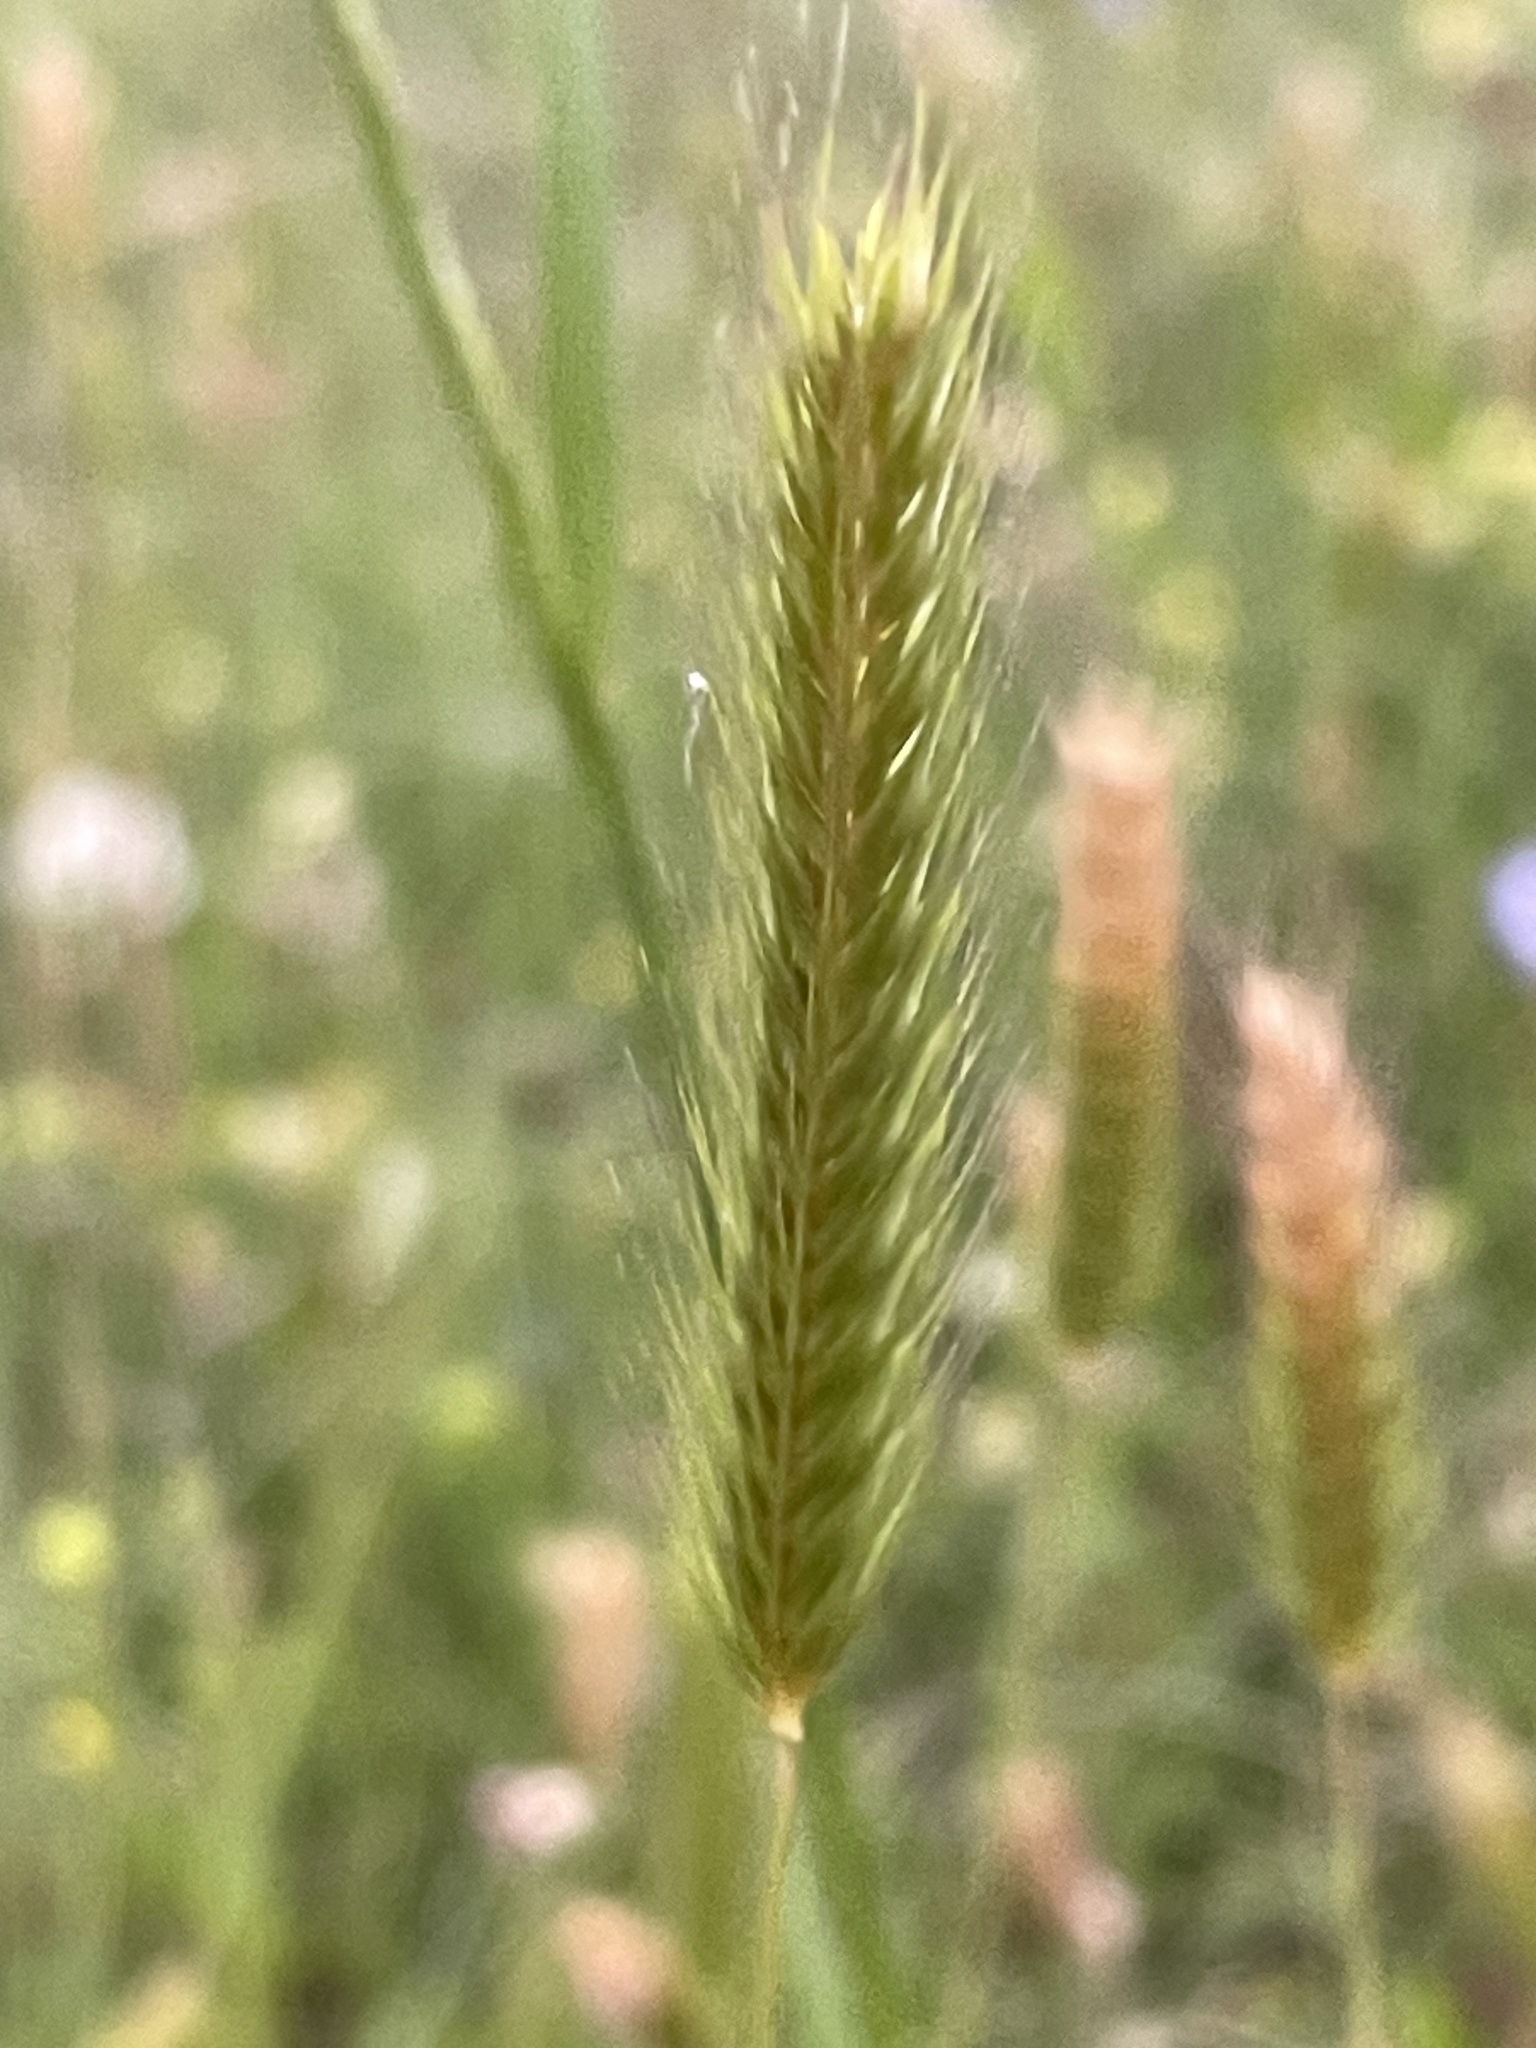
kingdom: Plantae
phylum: Tracheophyta
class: Liliopsida
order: Poales
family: Poaceae
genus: Hordeum
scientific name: Hordeum pusillum
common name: Little barley
